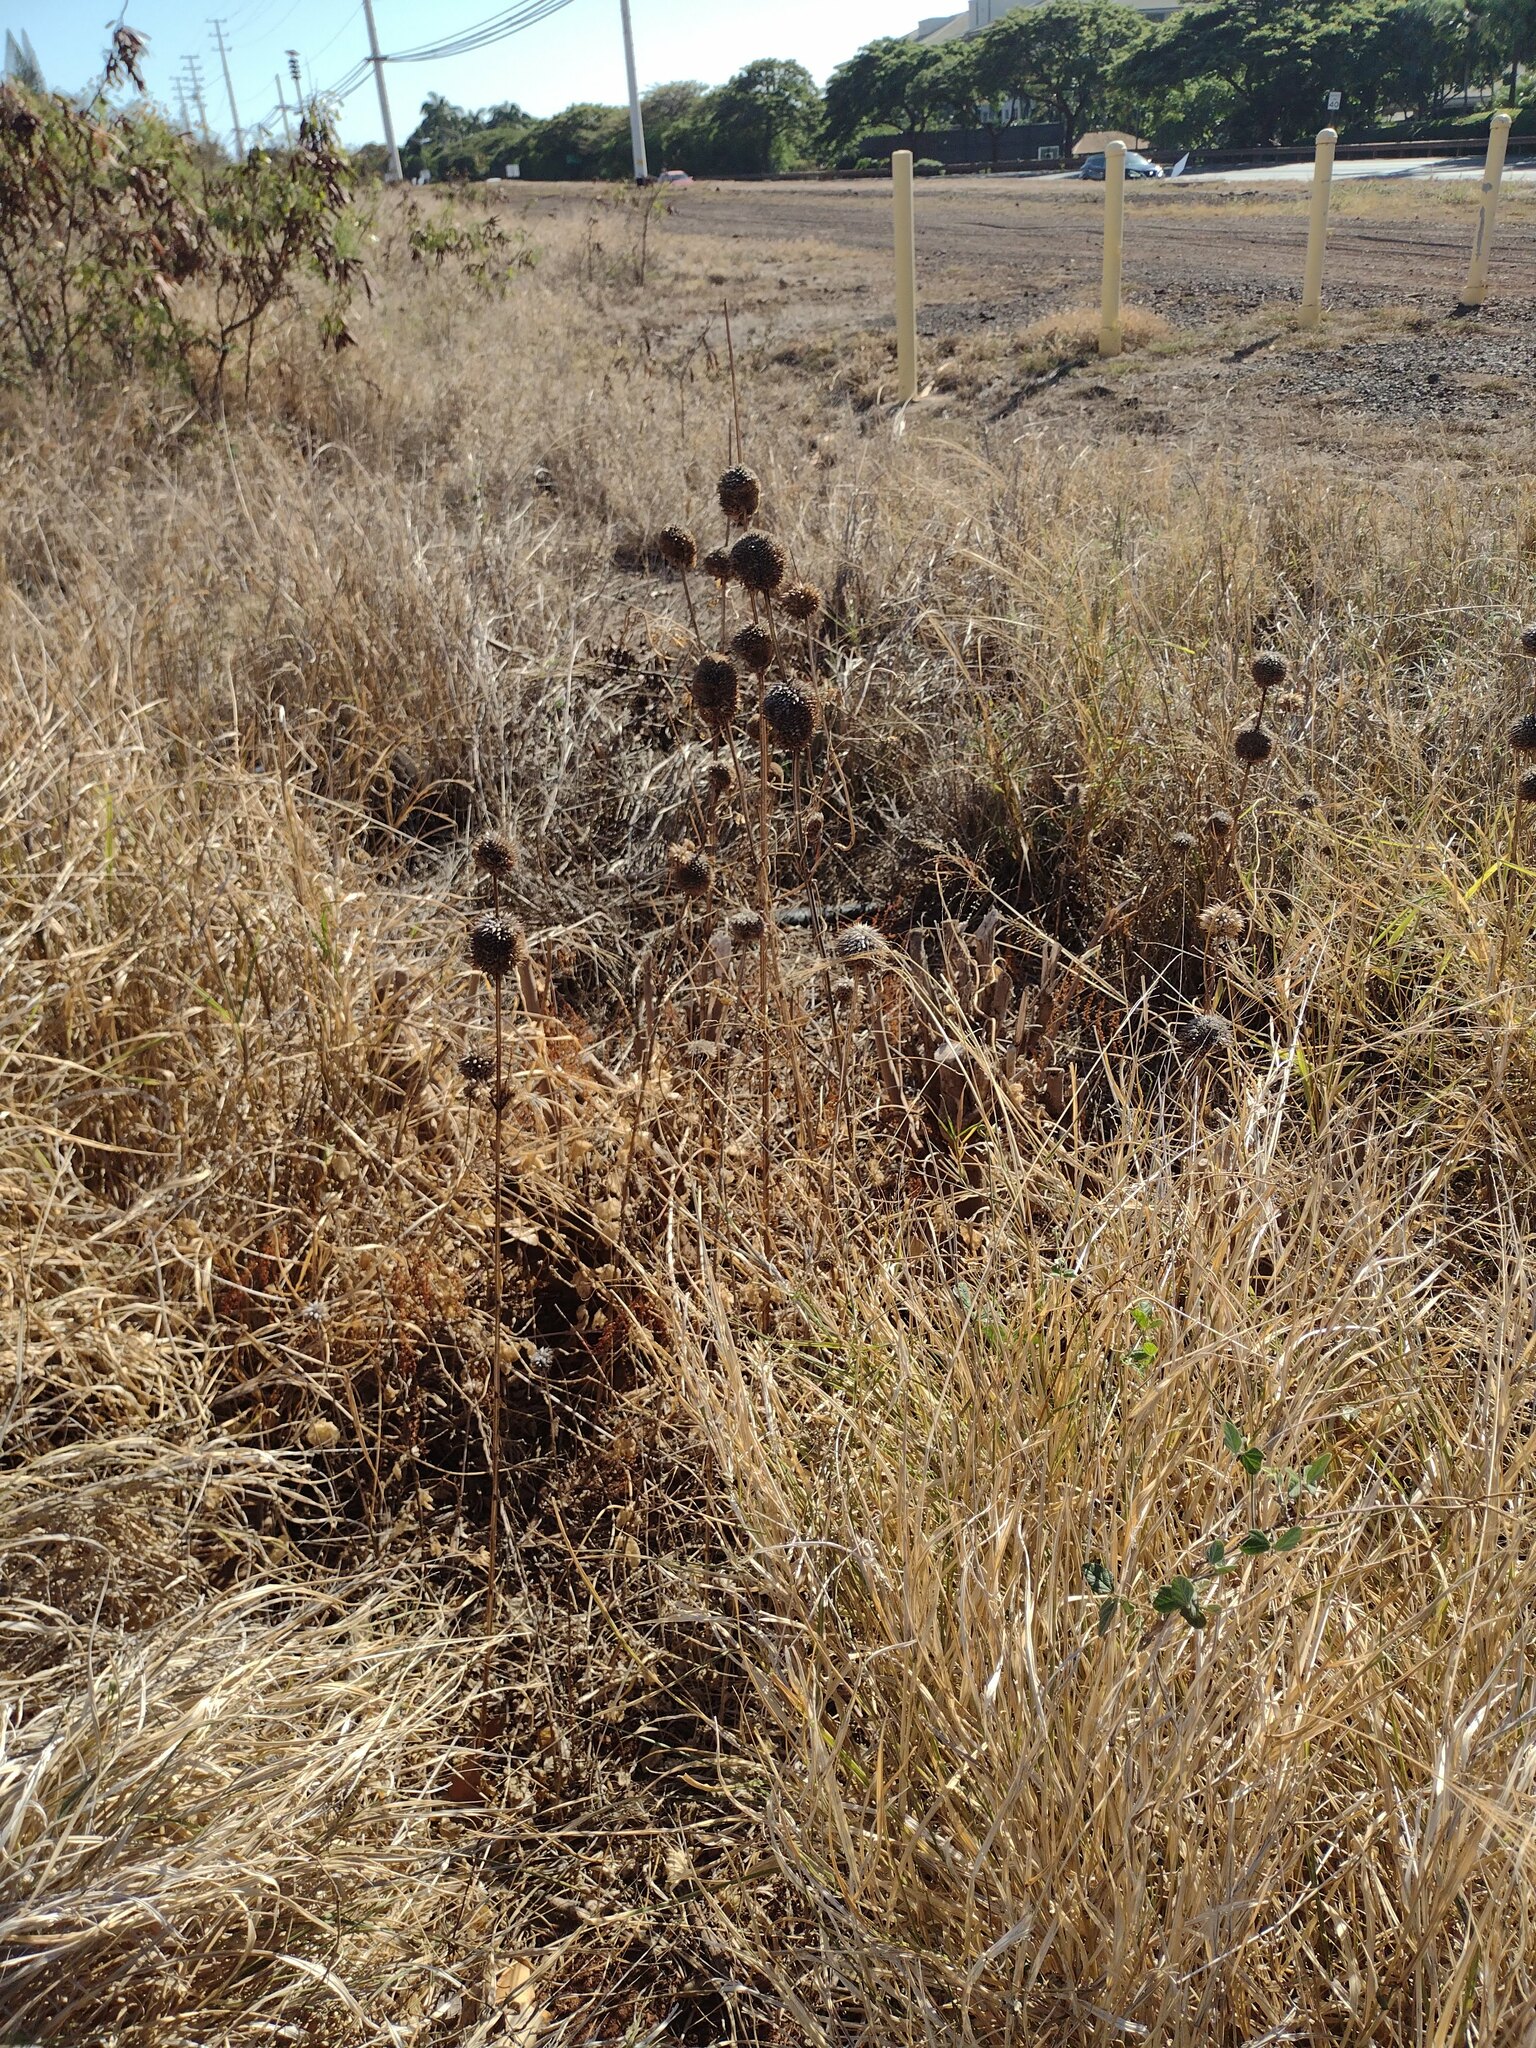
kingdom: Plantae
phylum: Tracheophyta
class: Magnoliopsida
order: Lamiales
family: Lamiaceae
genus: Leonotis
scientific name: Leonotis nepetifolia
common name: Christmas candlestick
